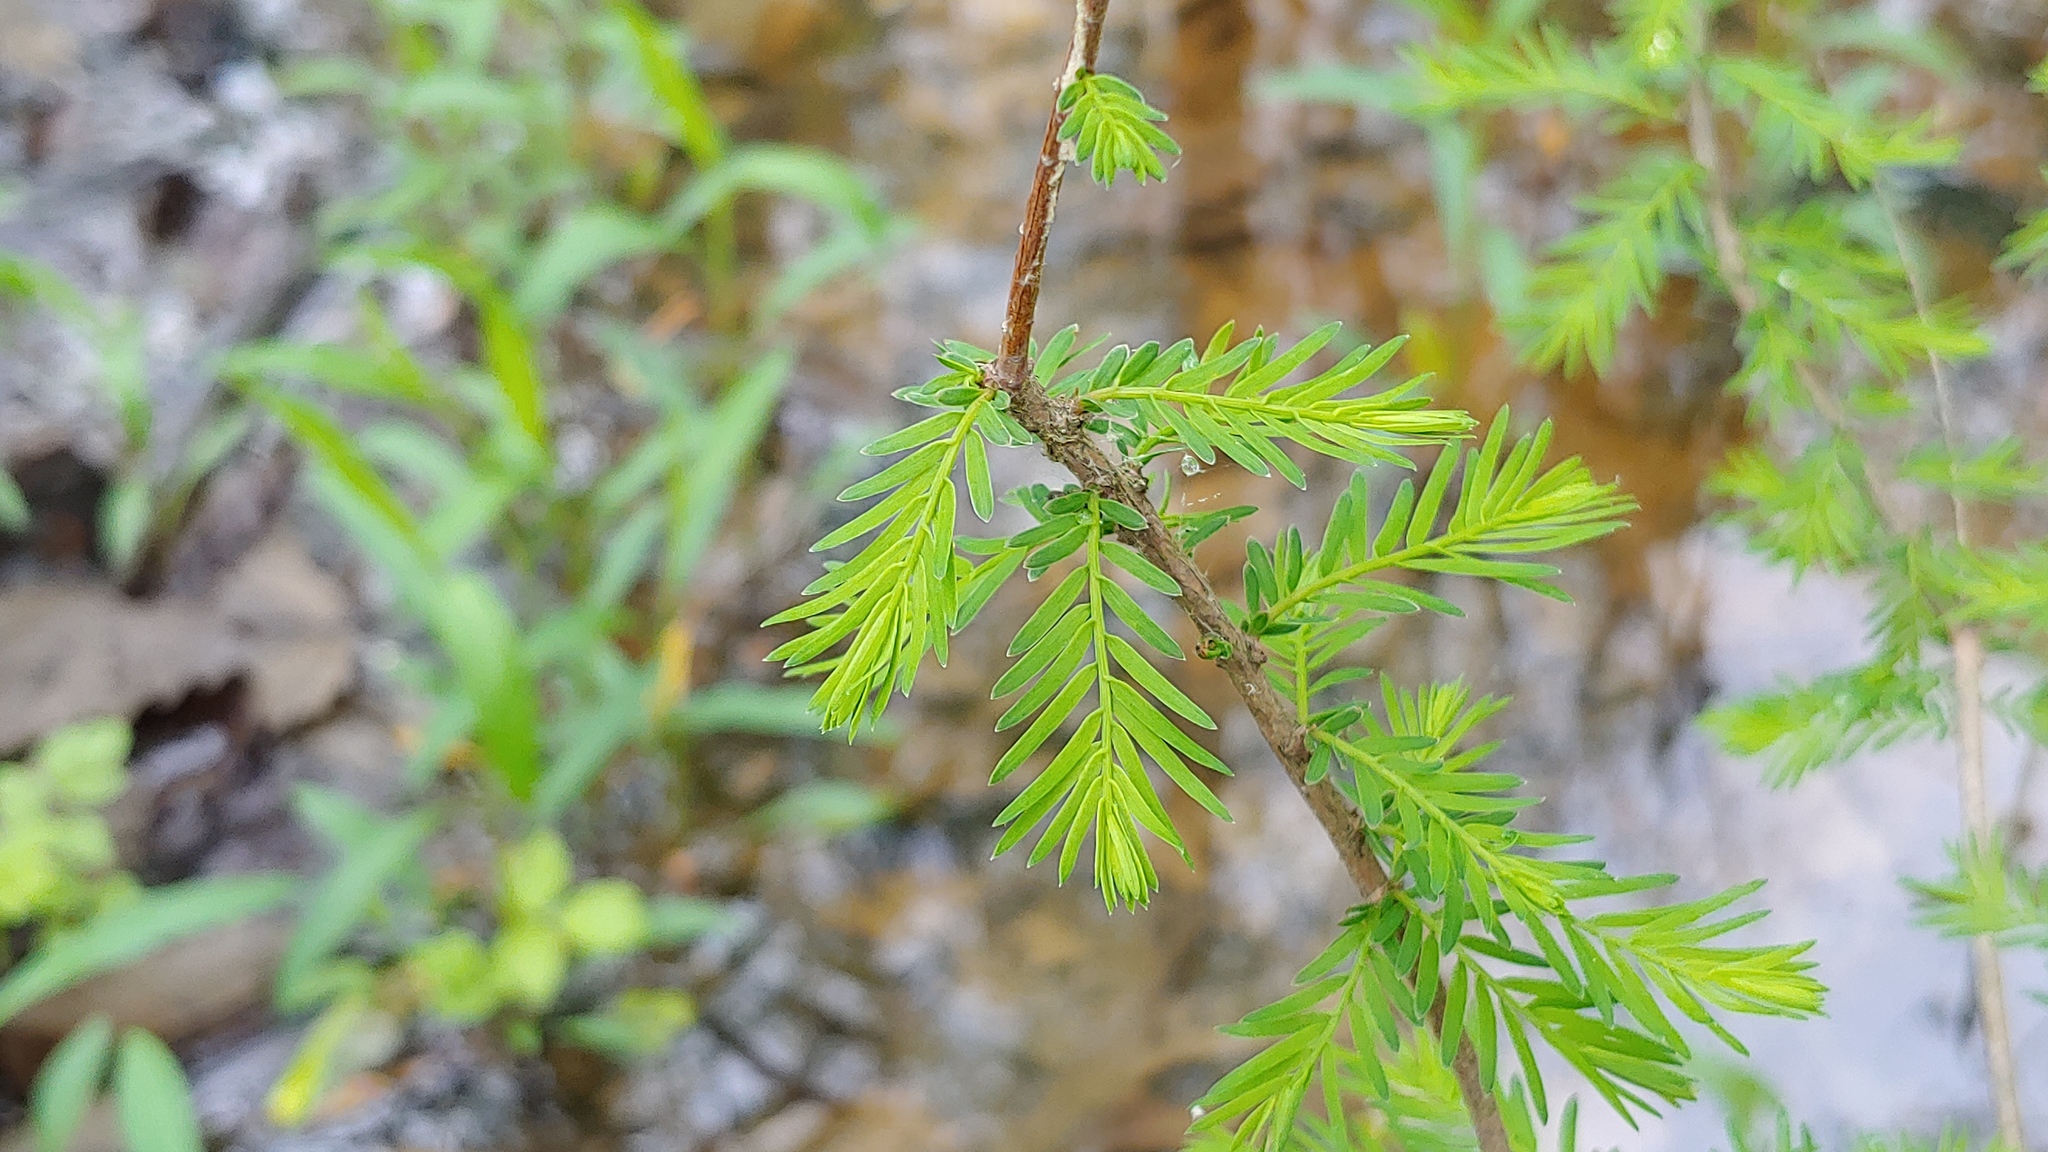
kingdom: Plantae
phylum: Tracheophyta
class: Pinopsida
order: Pinales
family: Cupressaceae
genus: Taxodium
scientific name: Taxodium distichum
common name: Bald cypress
